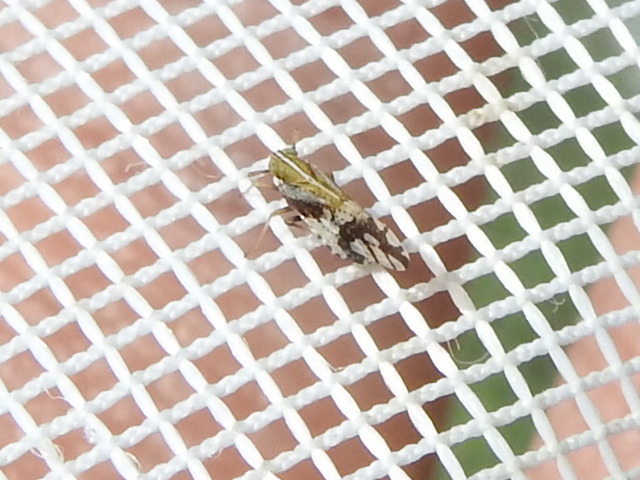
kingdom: Animalia
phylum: Arthropoda
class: Insecta
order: Hemiptera
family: Delphacidae
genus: Liburniella
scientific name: Liburniella ornata
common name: Ornate planthopper
